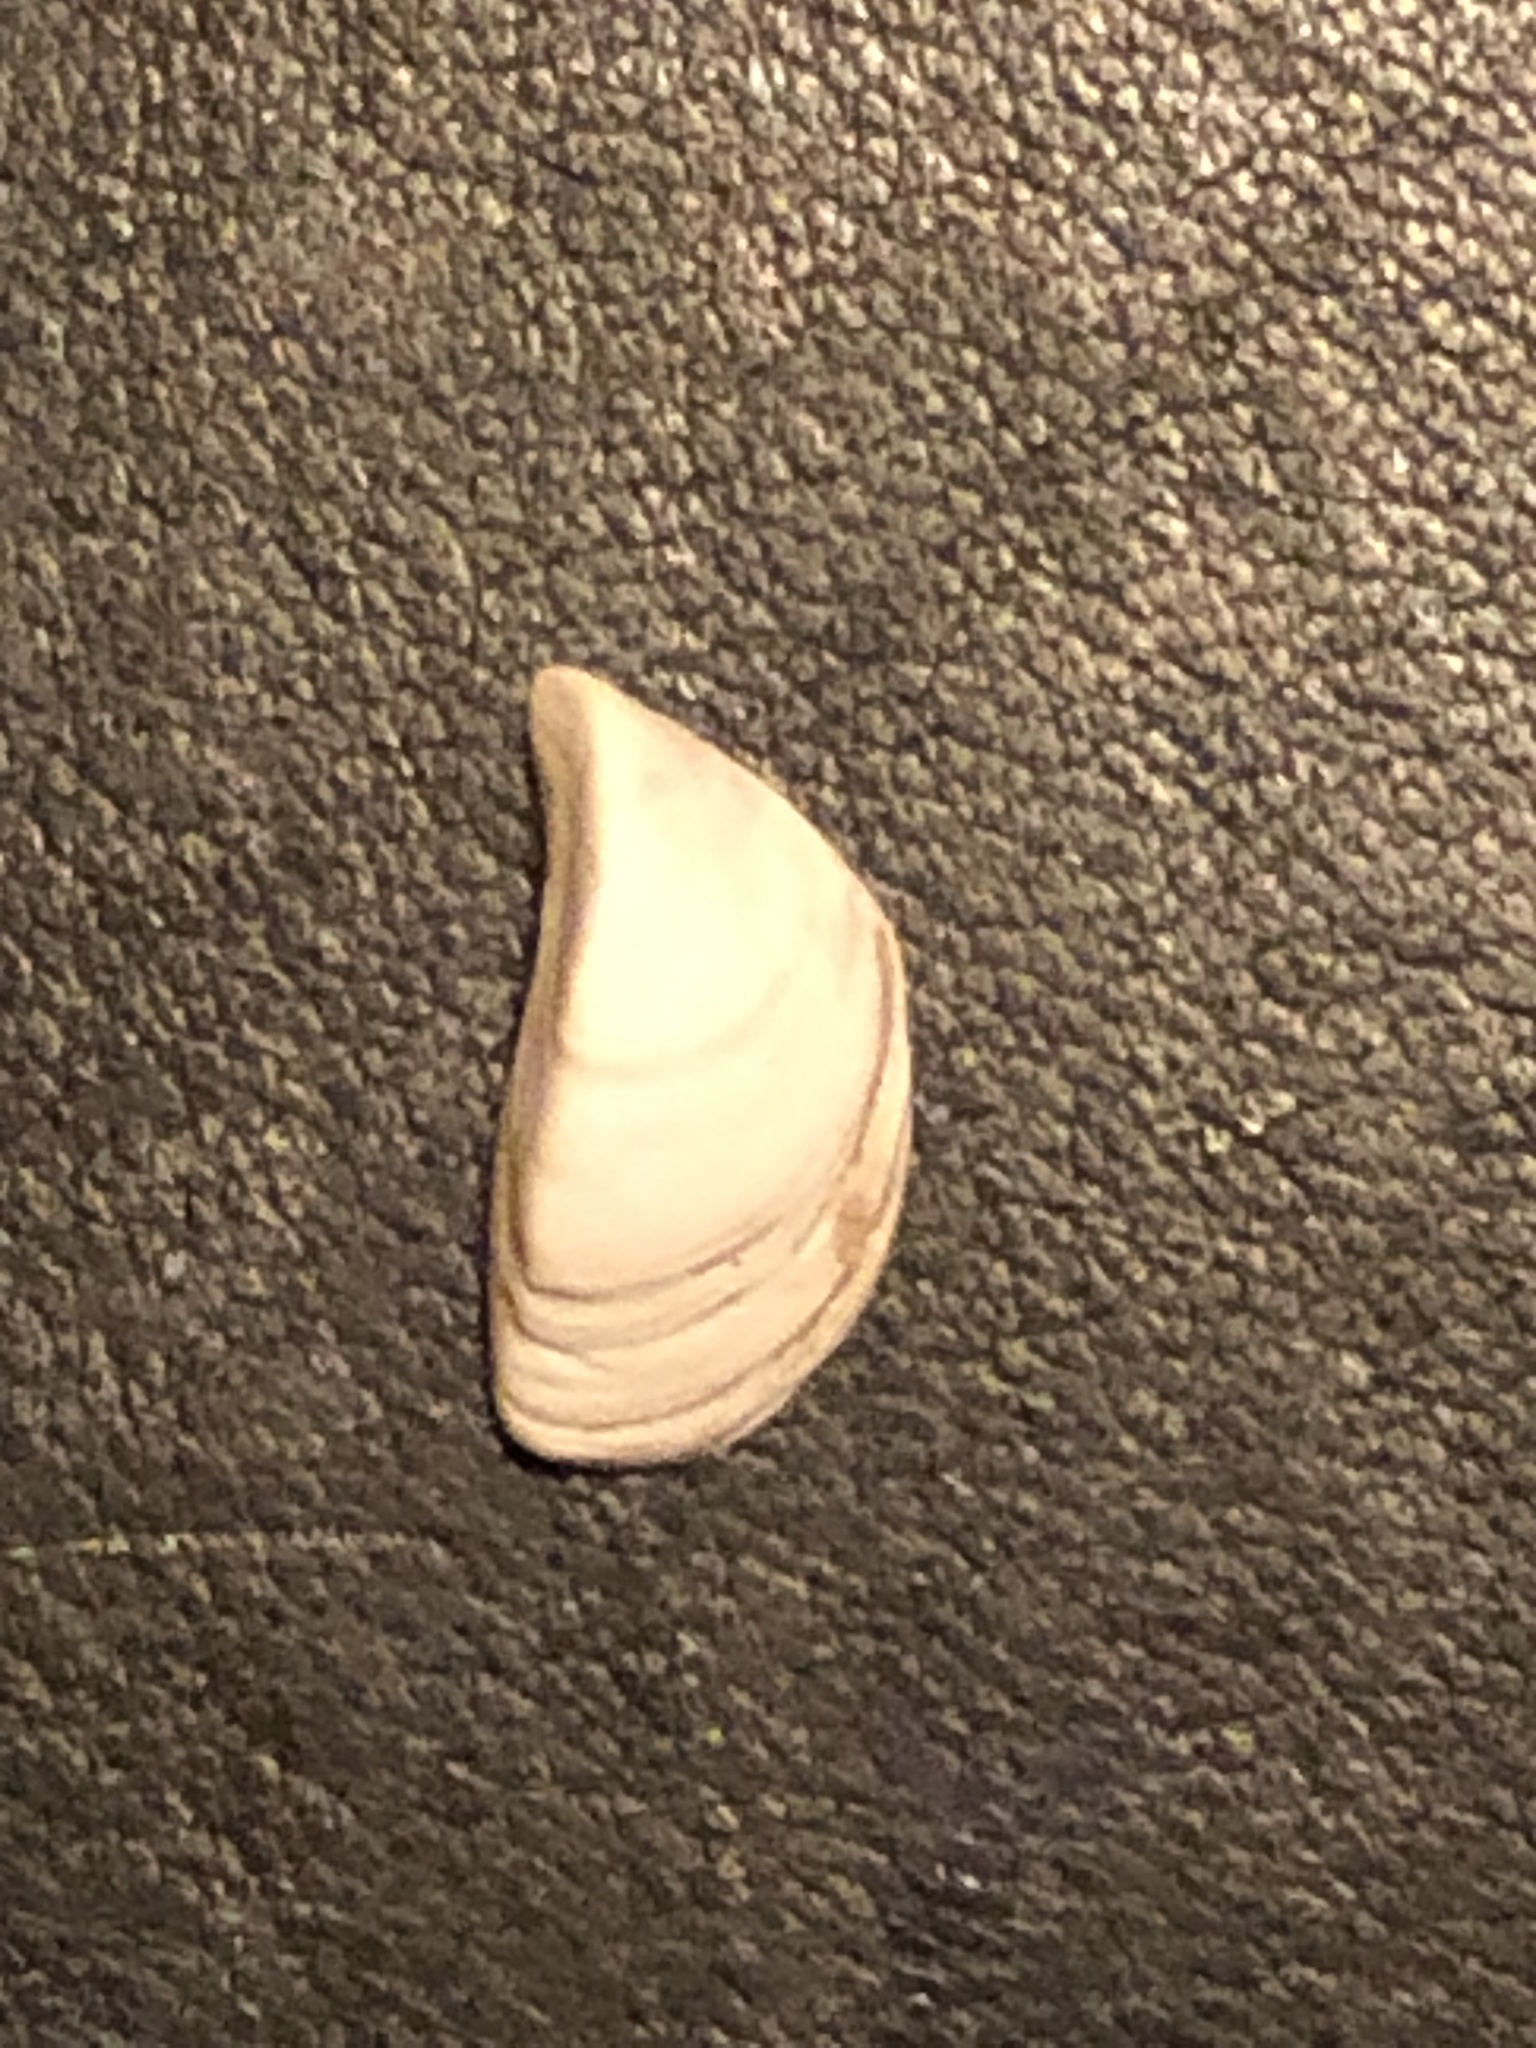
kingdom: Animalia
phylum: Mollusca
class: Bivalvia
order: Myida
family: Dreissenidae
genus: Dreissena
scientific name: Dreissena polymorpha
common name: Zebra mussel
